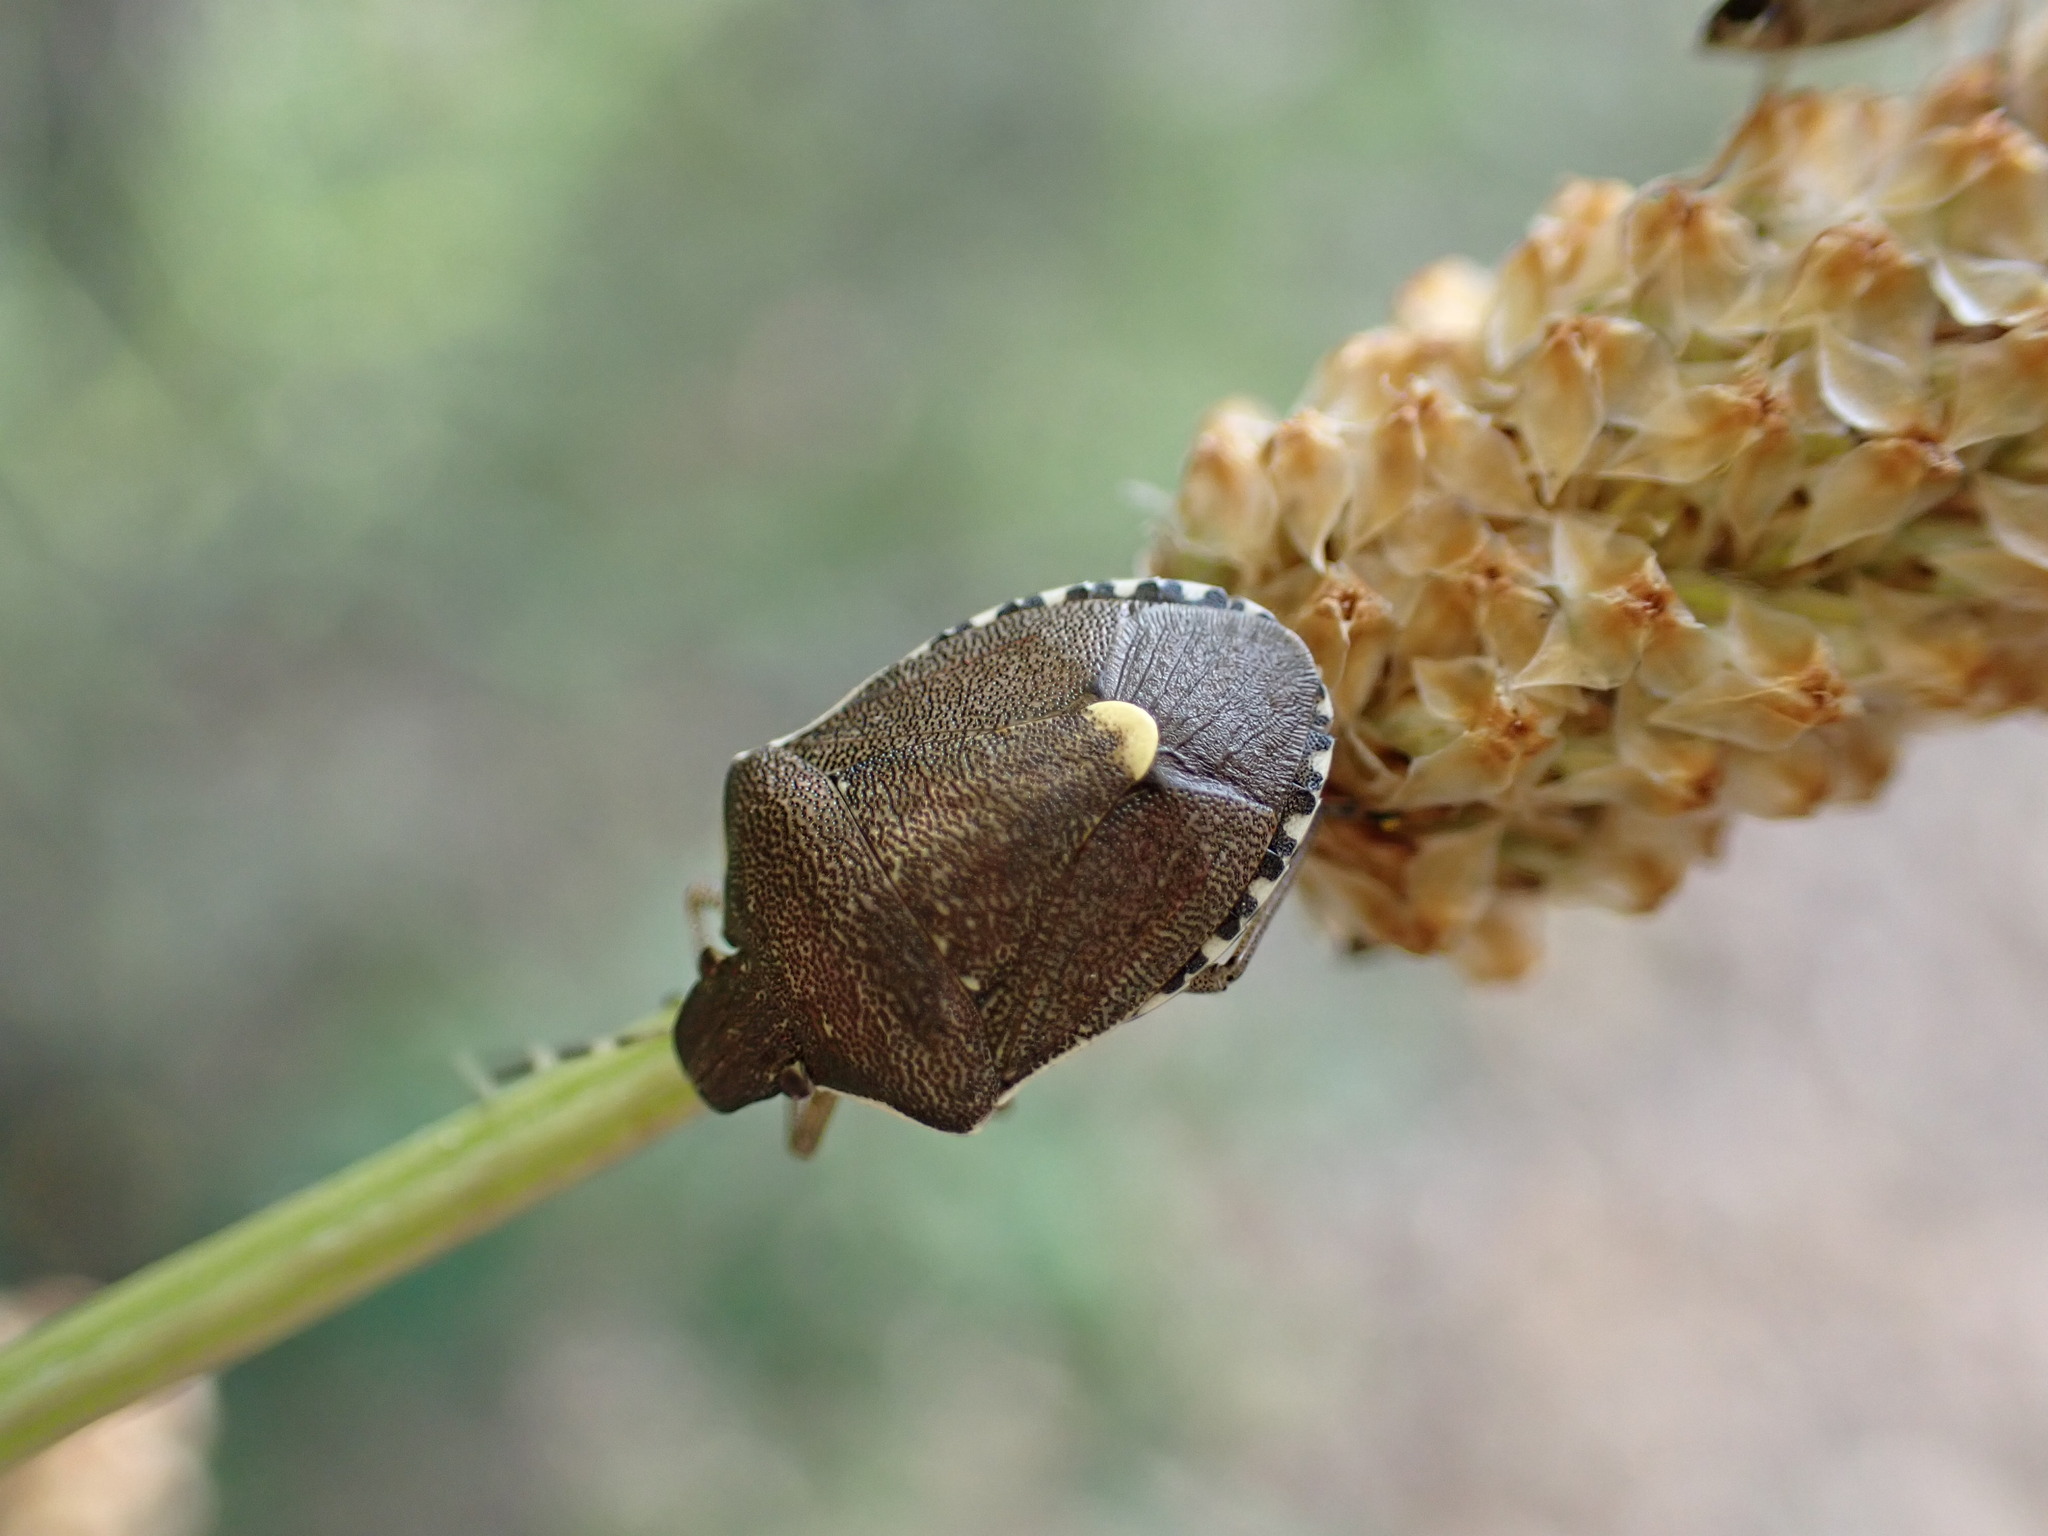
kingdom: Animalia
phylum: Arthropoda
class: Insecta
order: Hemiptera
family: Pentatomidae
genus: Holcostethus
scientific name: Holcostethus albipes
